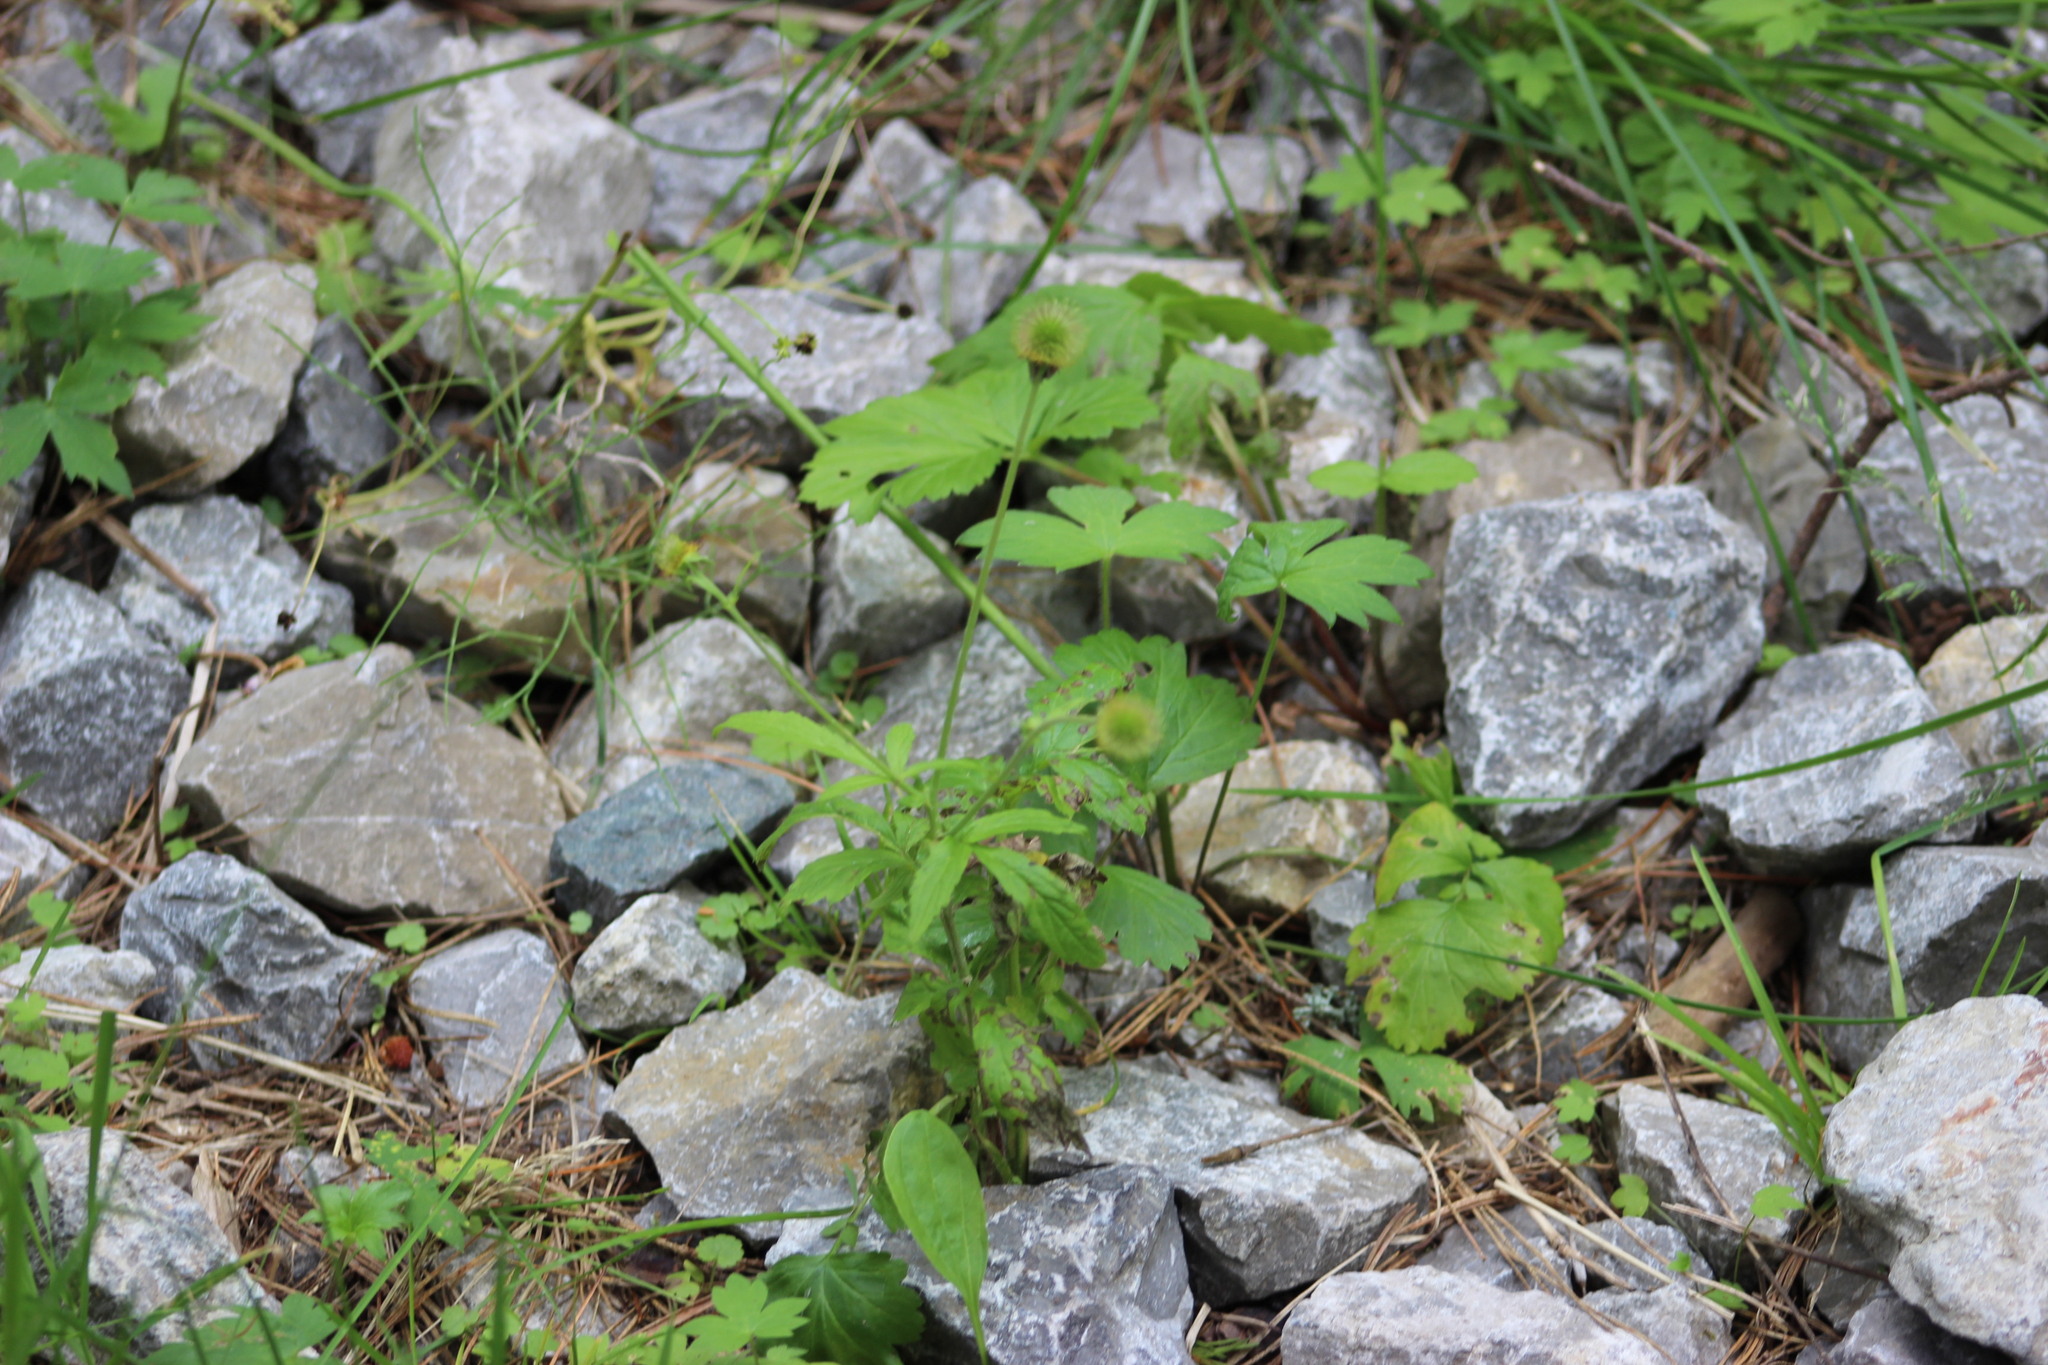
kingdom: Plantae
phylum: Tracheophyta
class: Magnoliopsida
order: Rosales
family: Rosaceae
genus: Geum
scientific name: Geum aleppicum
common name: Yellow avens
